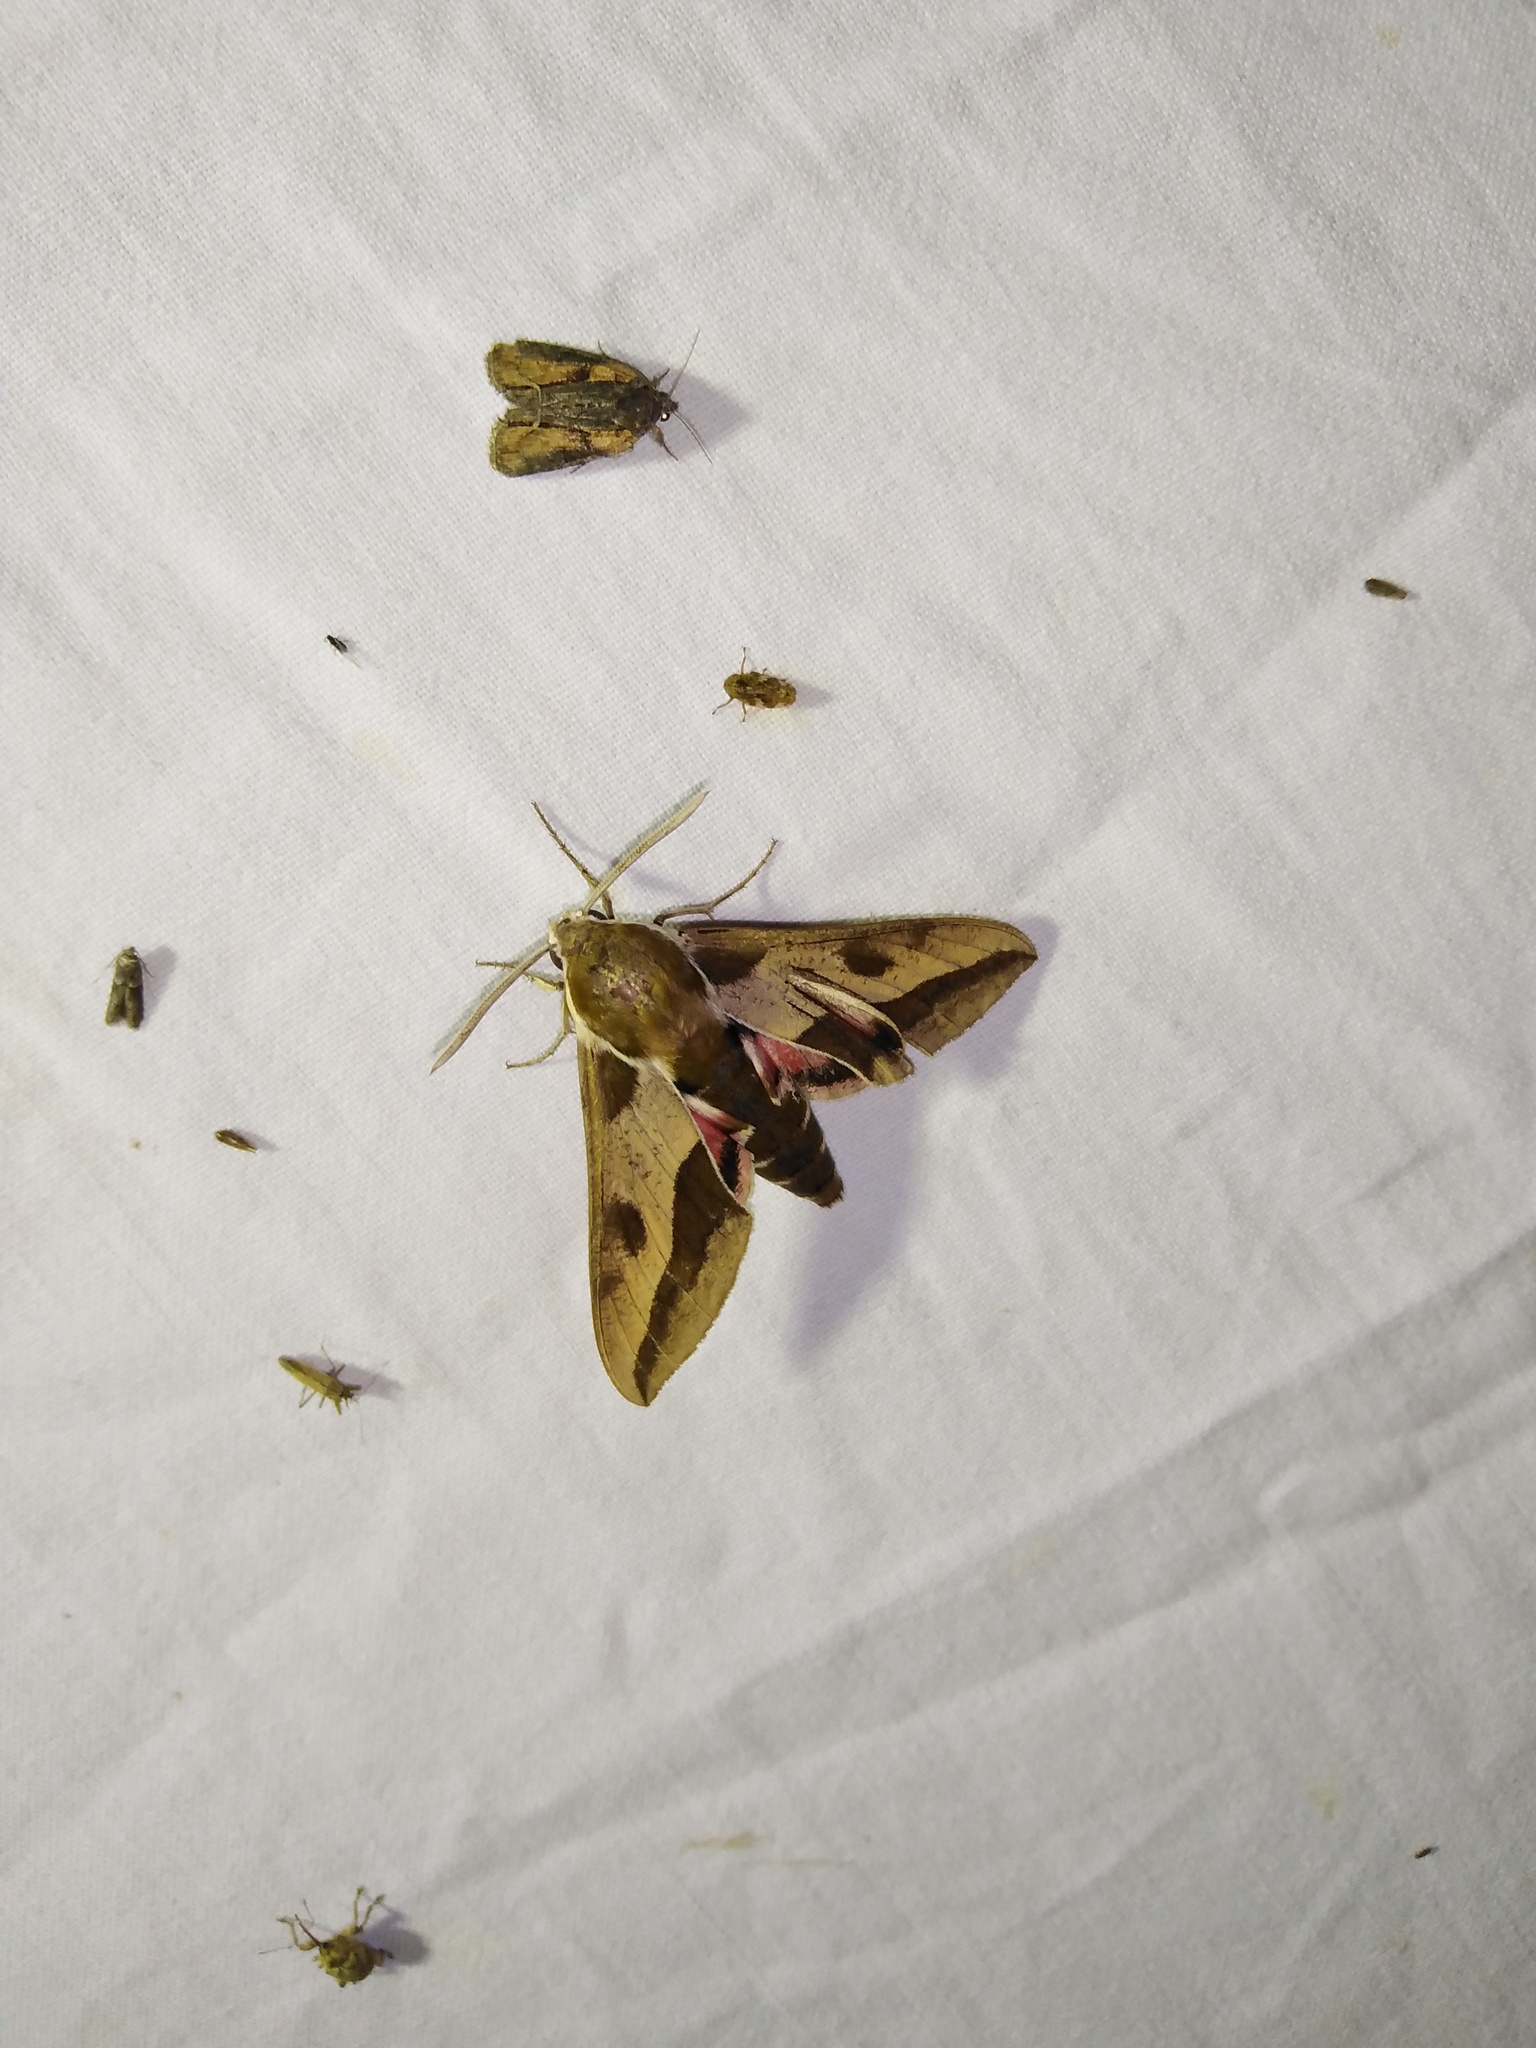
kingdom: Animalia
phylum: Arthropoda
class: Insecta
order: Lepidoptera
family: Sphingidae
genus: Hyles
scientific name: Hyles euphorbiae
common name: Spurge hawk-moth
